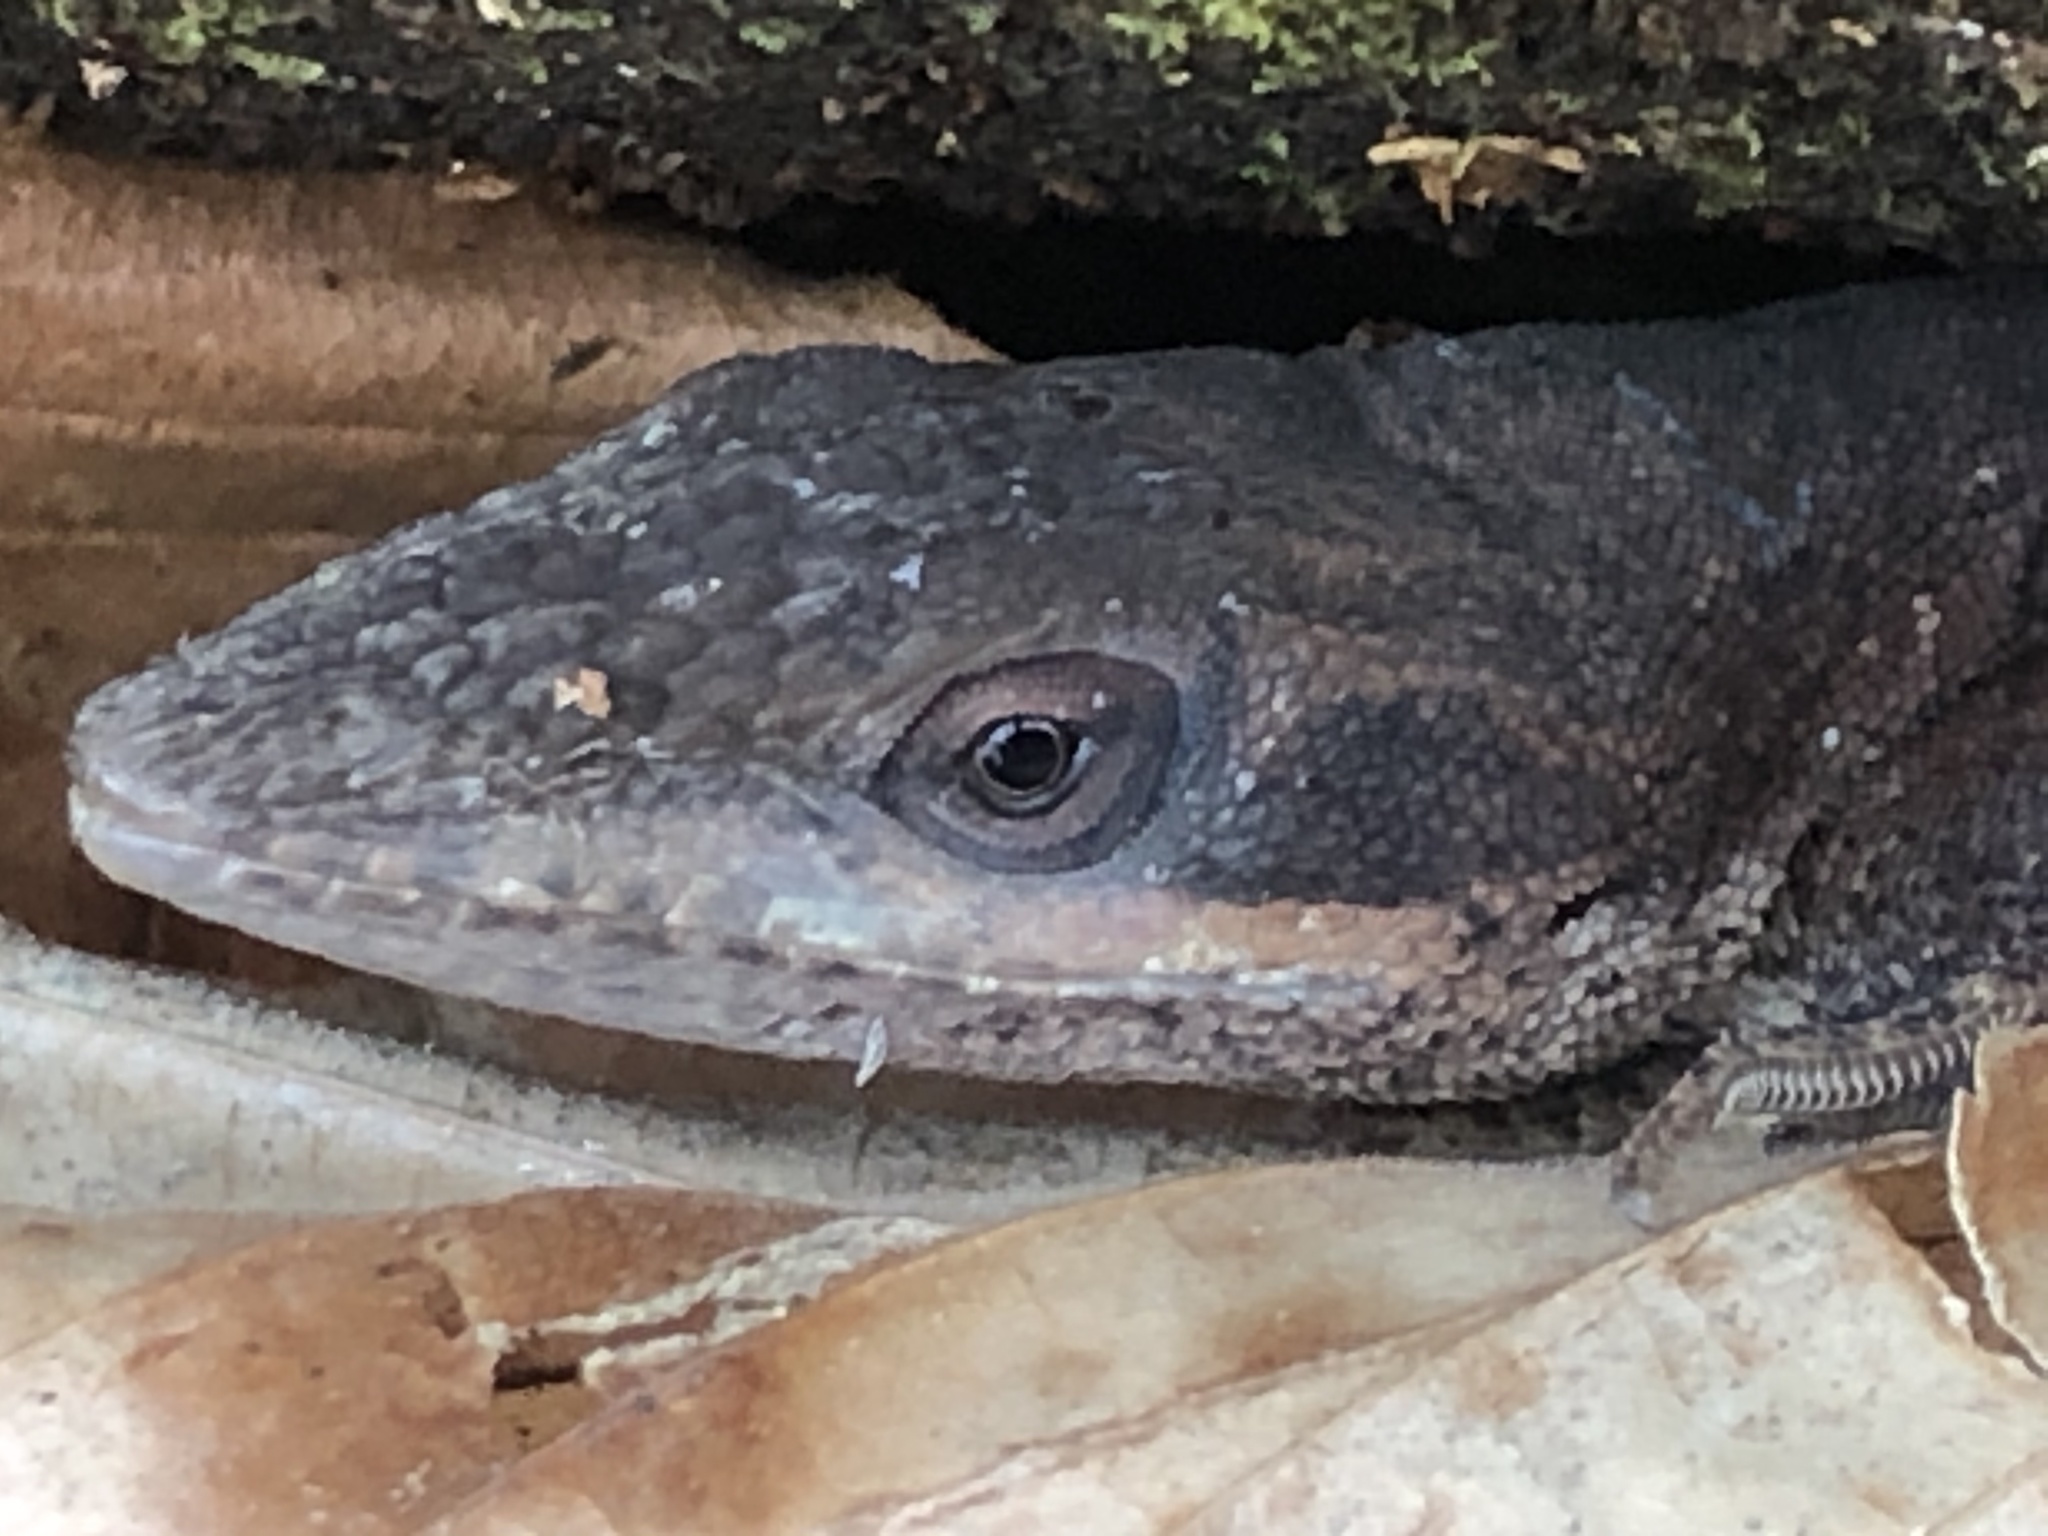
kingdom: Animalia
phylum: Chordata
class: Squamata
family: Dactyloidae
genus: Anolis
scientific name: Anolis carolinensis
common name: Green anole
